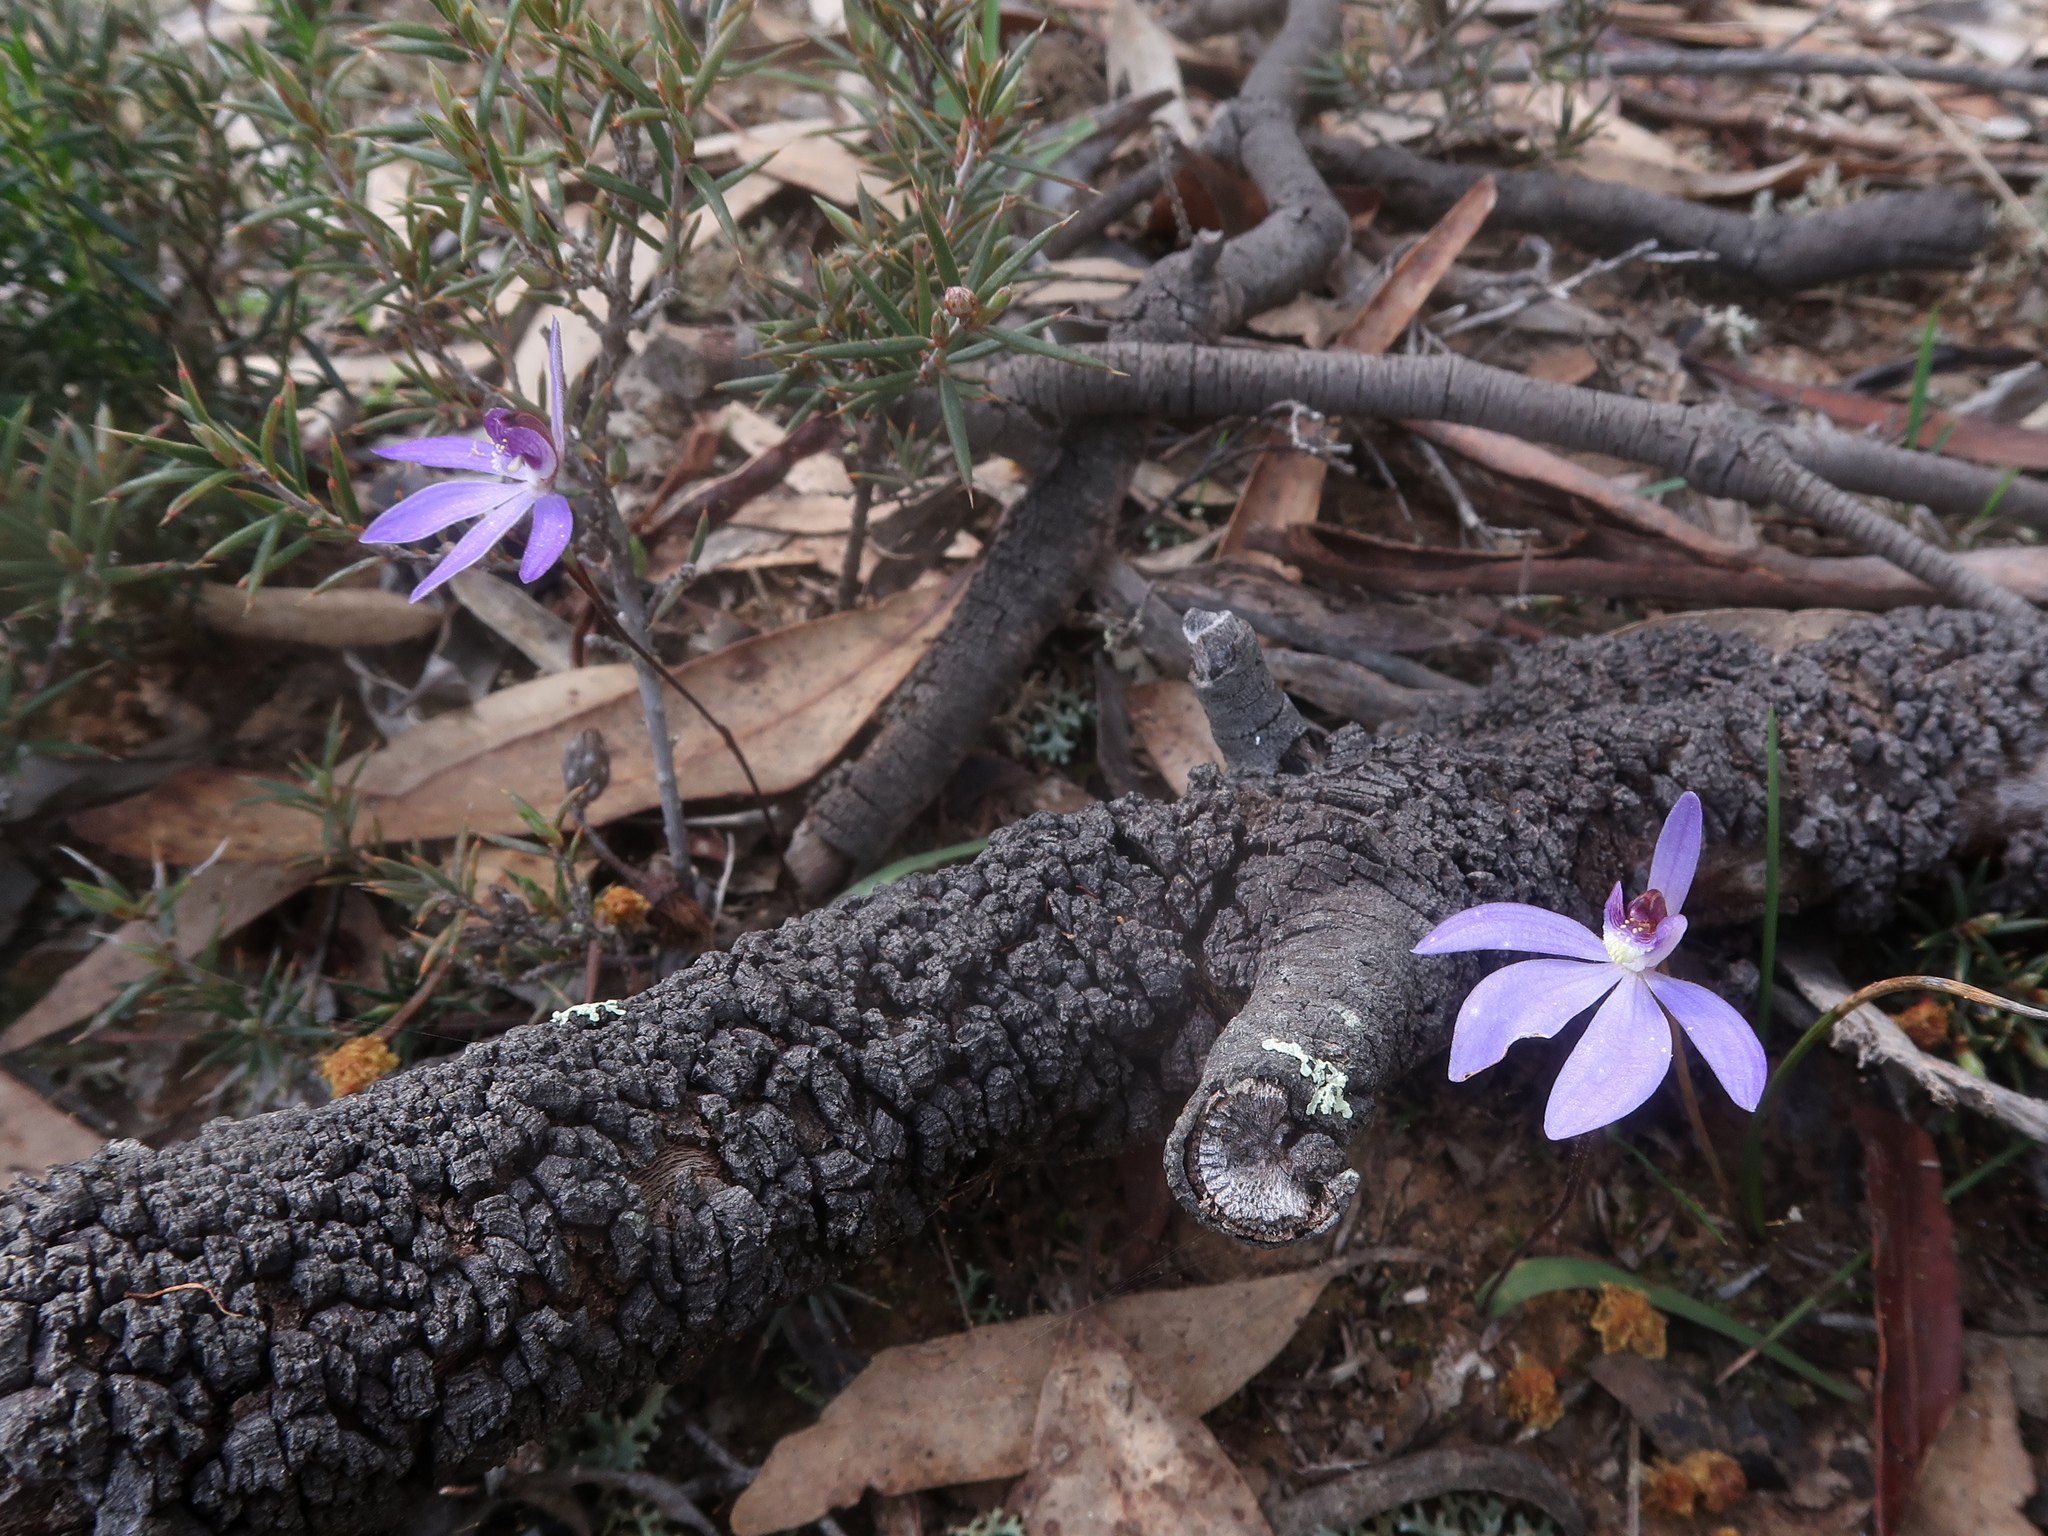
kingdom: Plantae
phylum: Tracheophyta
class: Liliopsida
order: Asparagales
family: Orchidaceae
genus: Caladenia
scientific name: Caladenia caerulea
